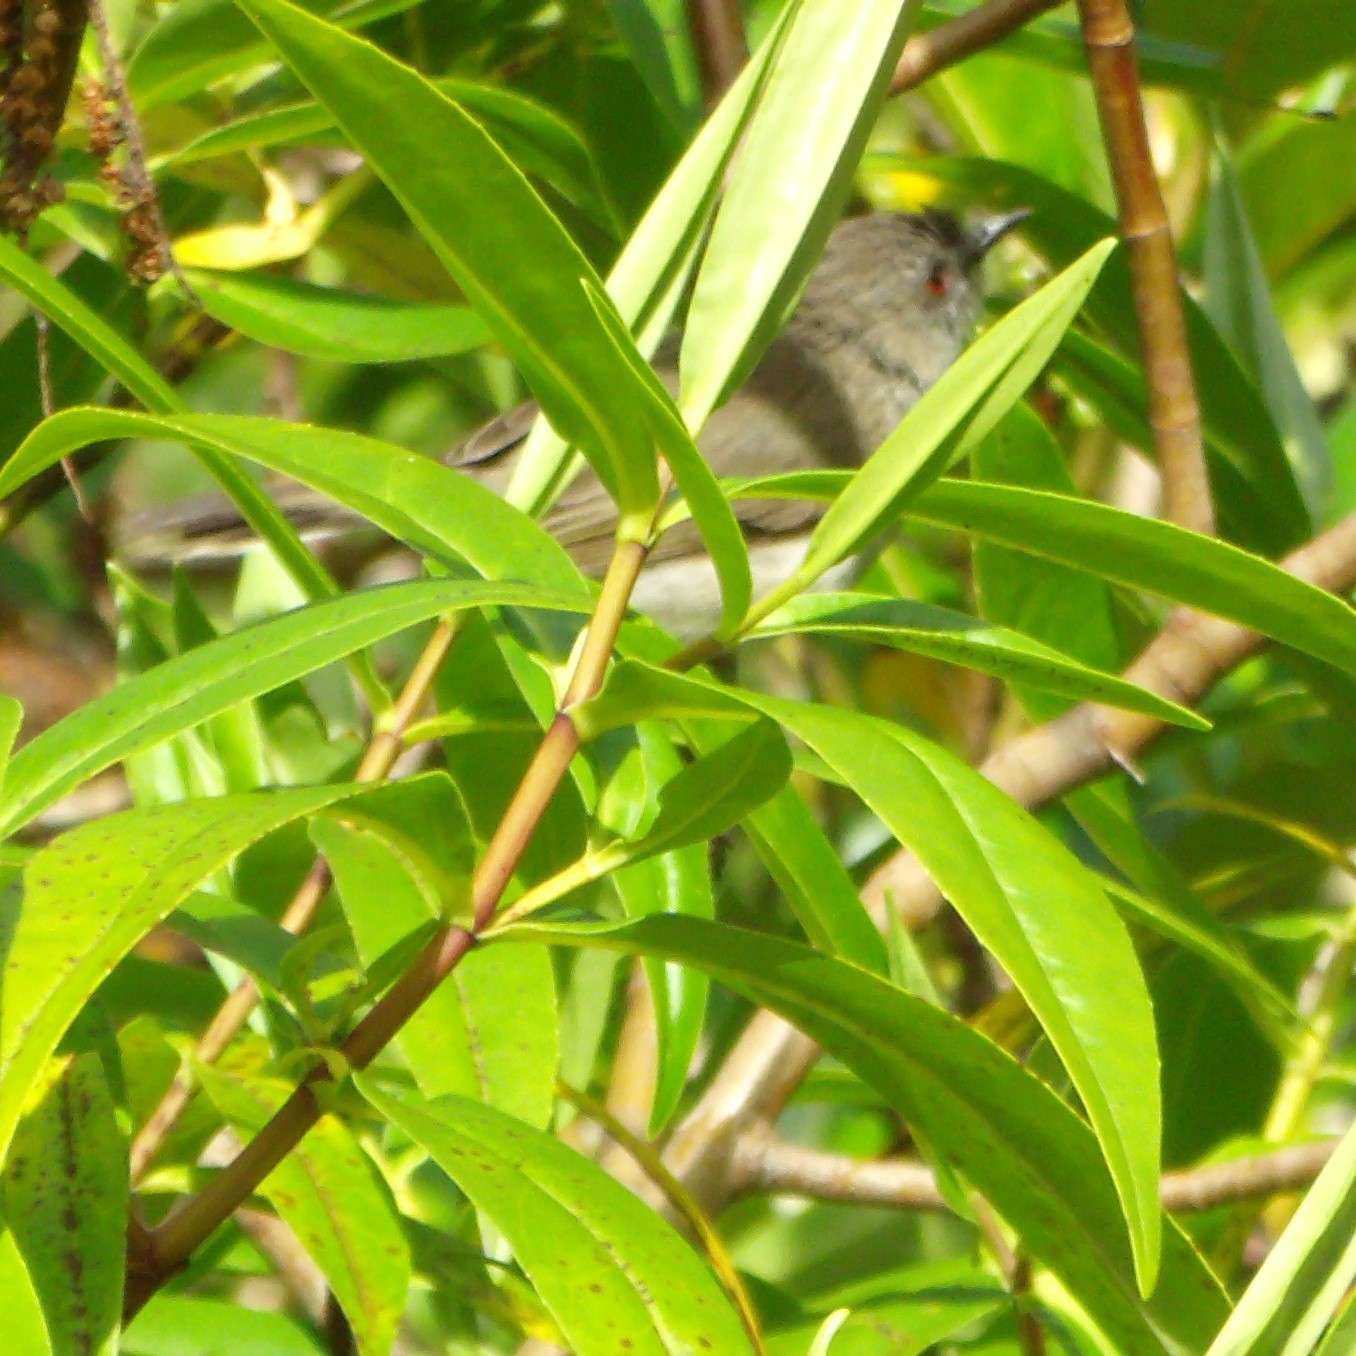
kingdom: Animalia
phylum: Chordata
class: Aves
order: Passeriformes
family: Acanthizidae
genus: Gerygone
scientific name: Gerygone igata
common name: Grey gerygone
